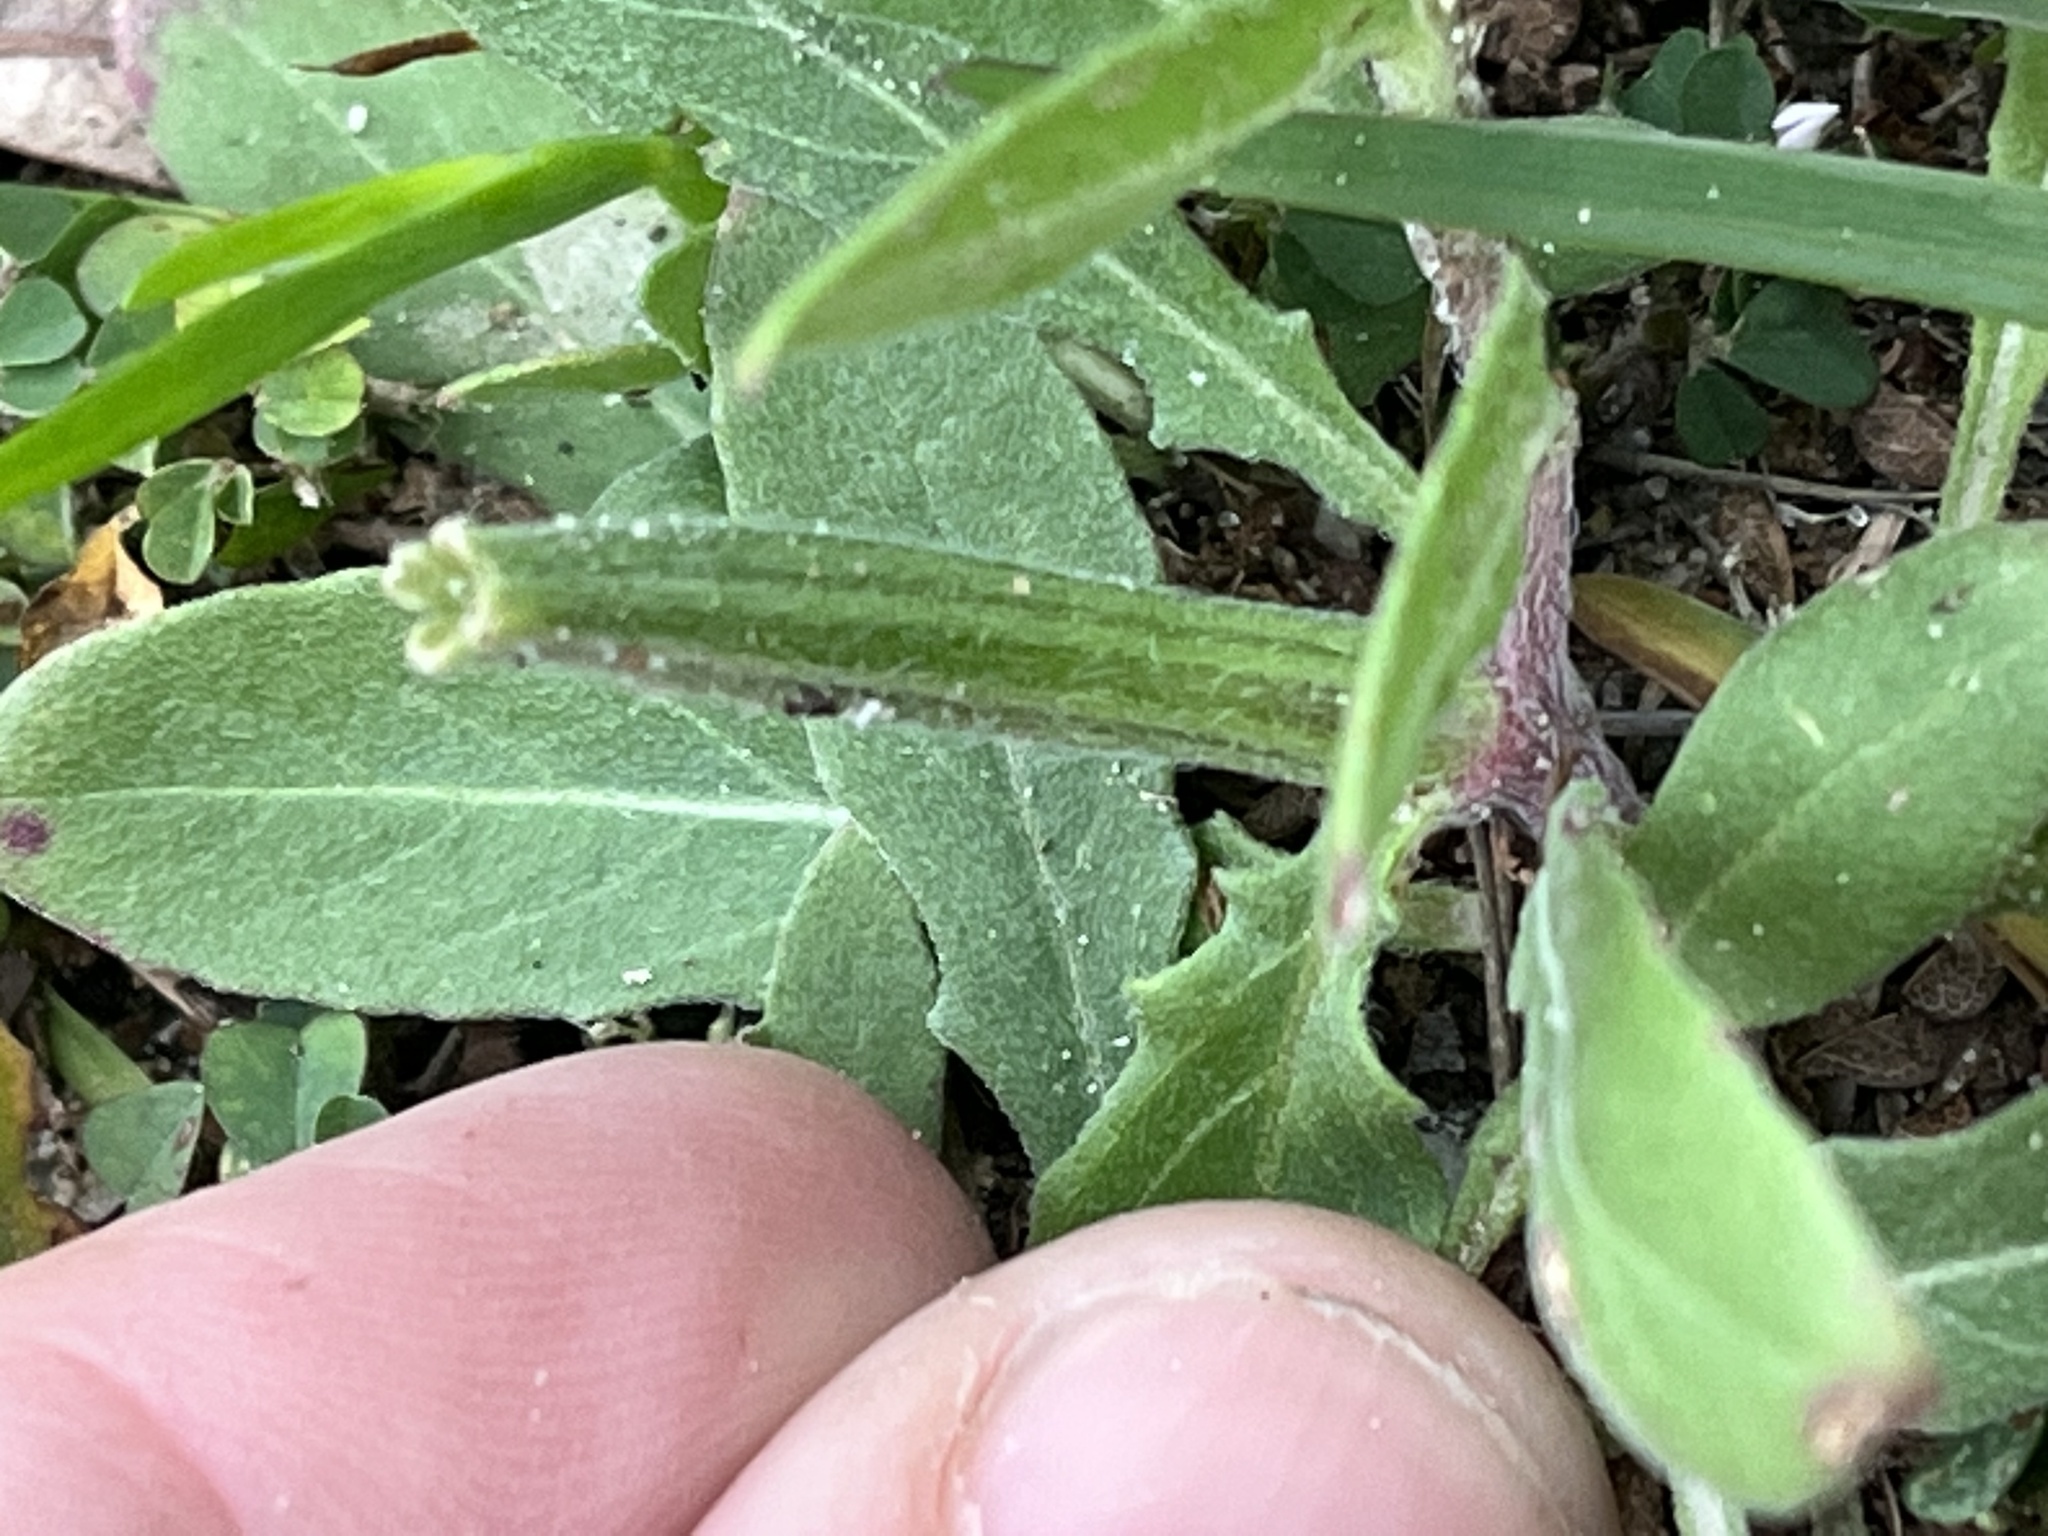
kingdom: Plantae
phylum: Tracheophyta
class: Magnoliopsida
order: Myrtales
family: Onagraceae
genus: Oenothera
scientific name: Oenothera humifusa
